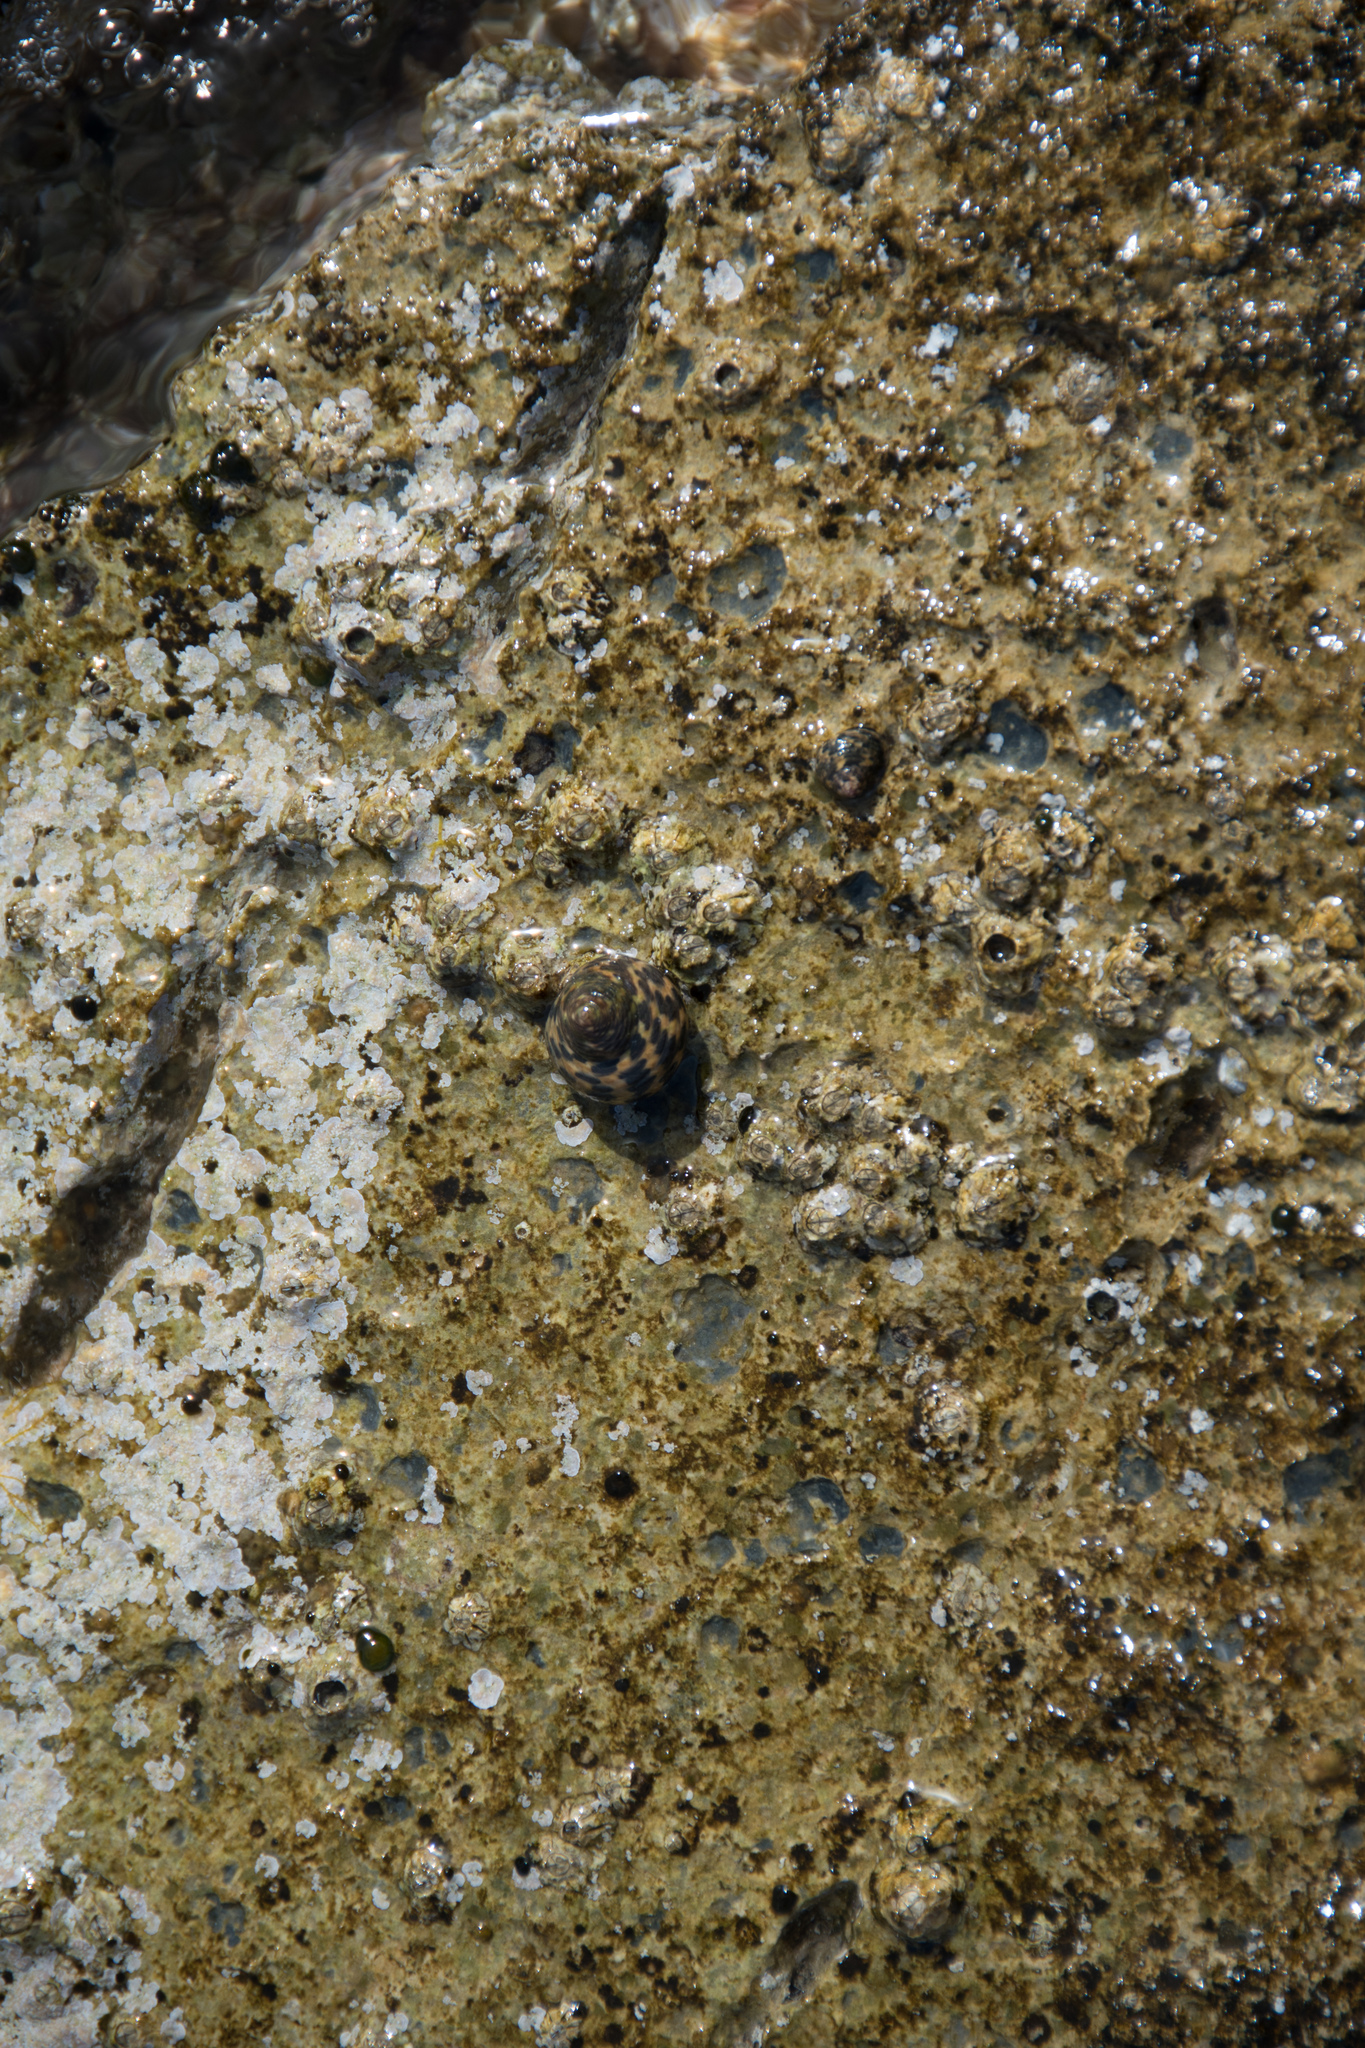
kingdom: Animalia
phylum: Mollusca
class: Gastropoda
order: Trochida
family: Trochidae
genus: Phorcus
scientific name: Phorcus turbinatus
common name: Turbinate monodont
